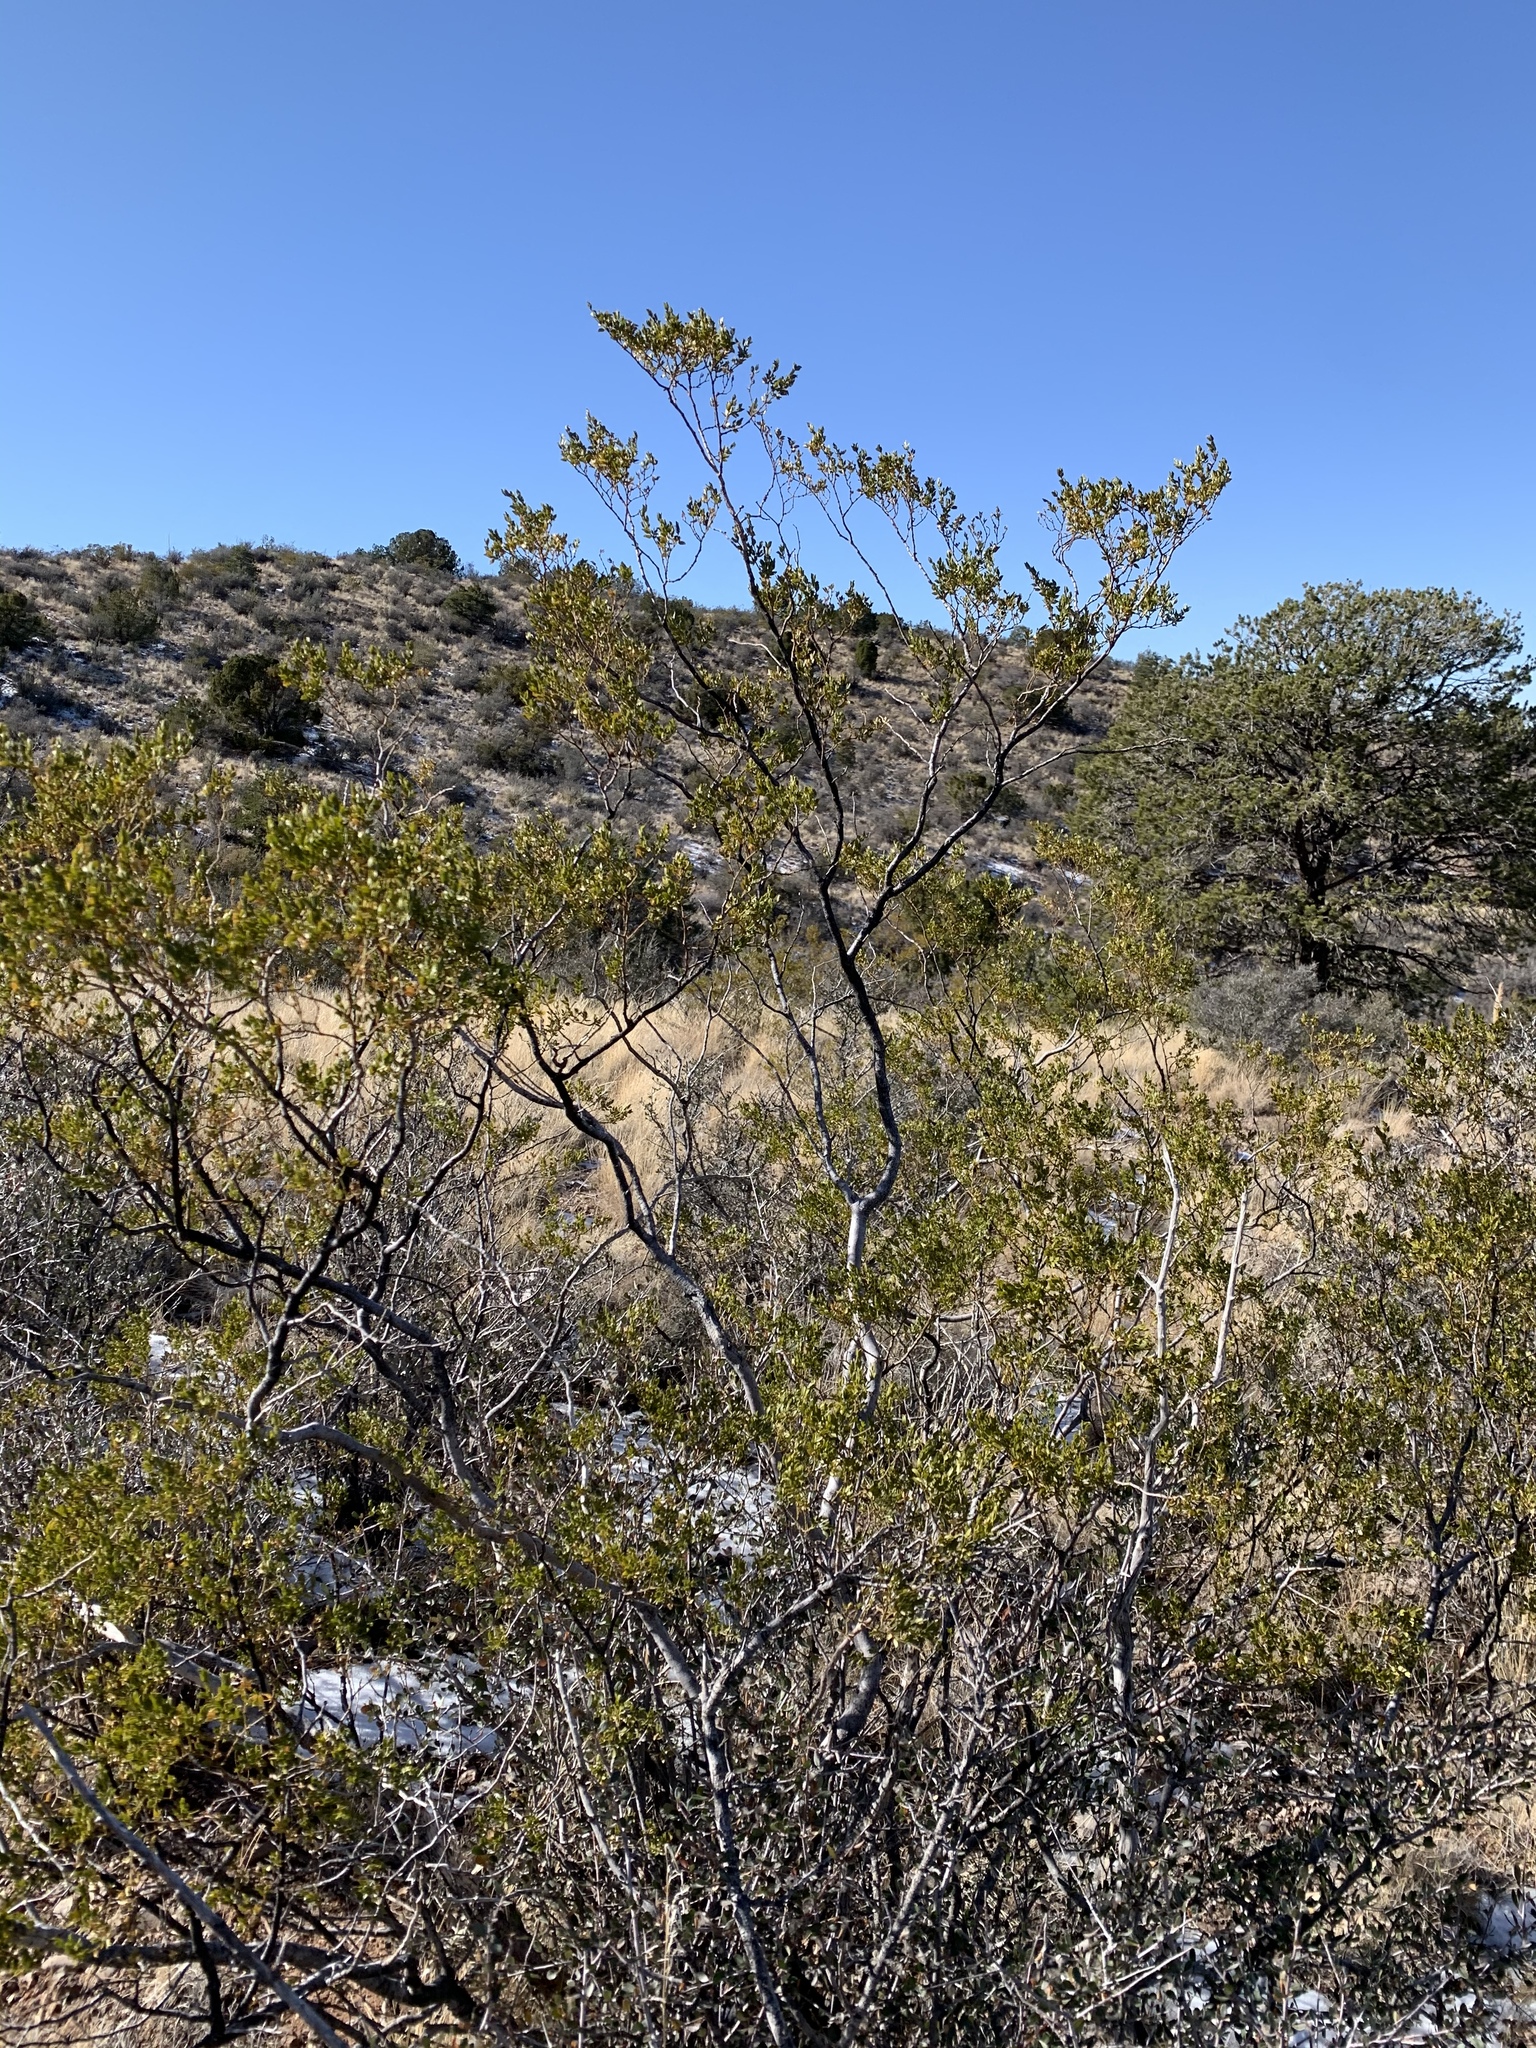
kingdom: Plantae
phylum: Tracheophyta
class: Magnoliopsida
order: Zygophyllales
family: Zygophyllaceae
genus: Larrea
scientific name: Larrea tridentata
